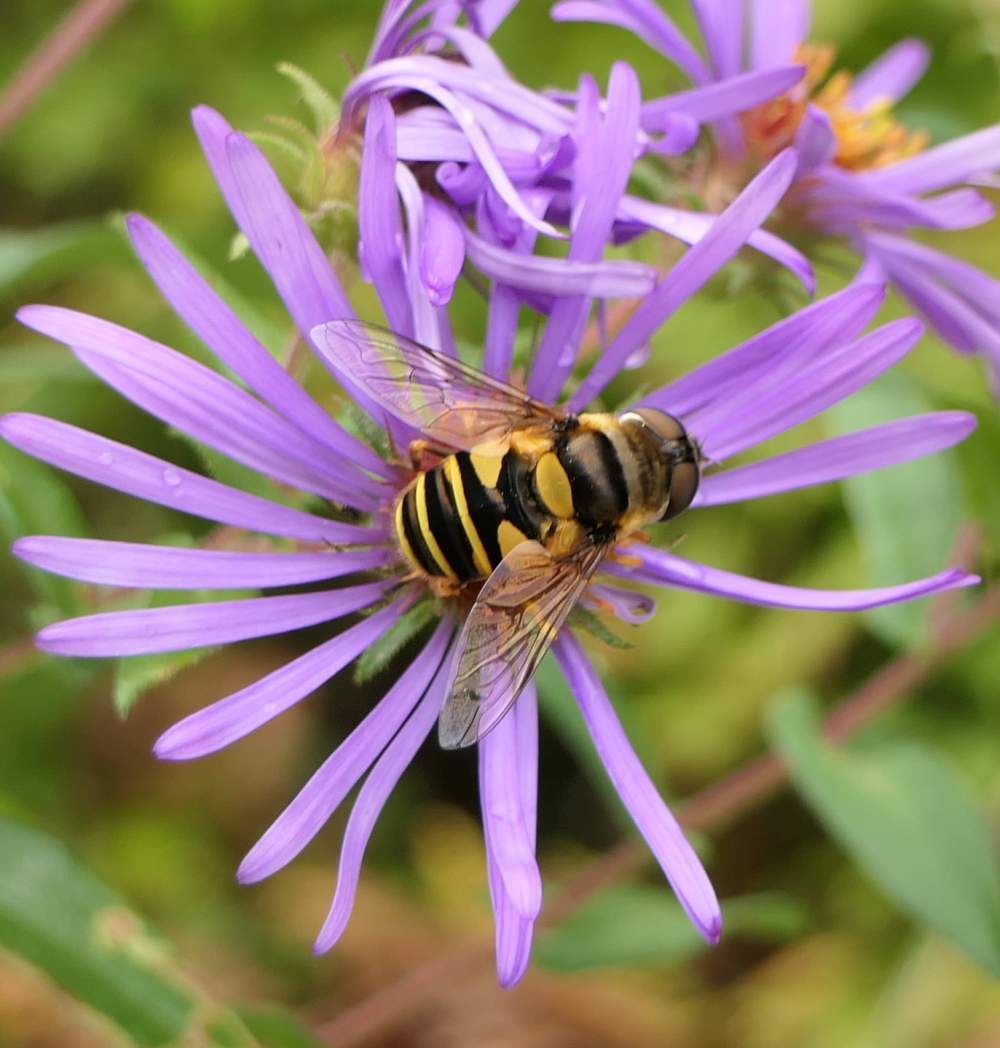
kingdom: Animalia
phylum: Arthropoda
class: Insecta
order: Diptera
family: Syrphidae
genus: Eristalis
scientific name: Eristalis transversa
